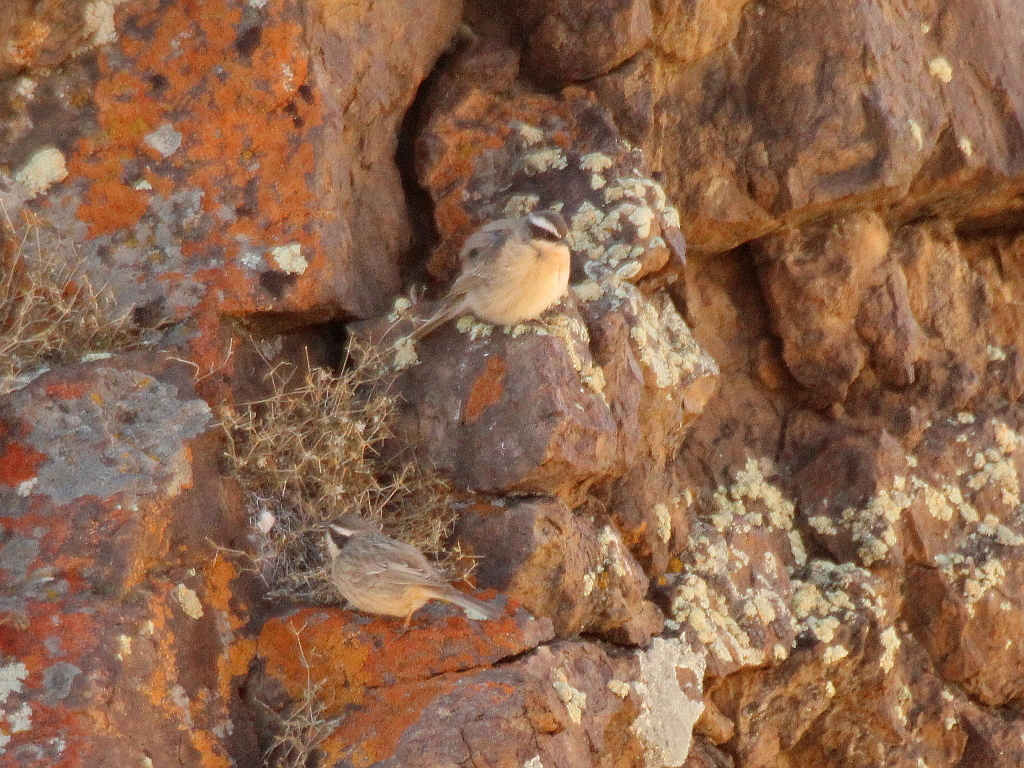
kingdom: Animalia
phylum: Chordata
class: Aves
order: Passeriformes
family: Prunellidae
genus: Prunella
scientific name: Prunella fulvescens
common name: Brown accentor
